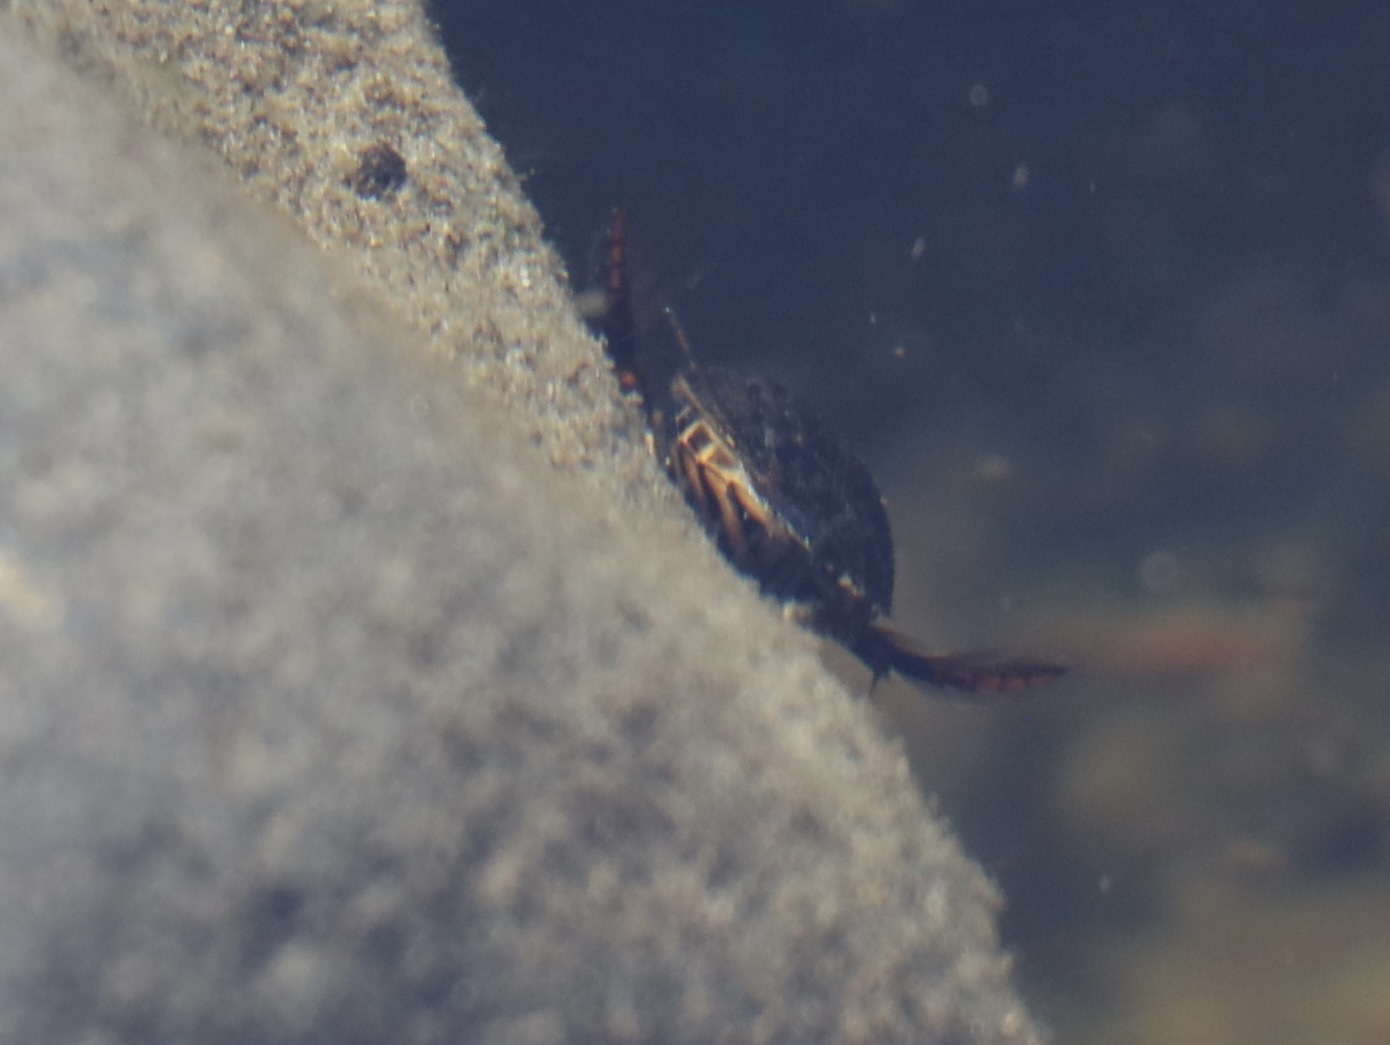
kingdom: Animalia
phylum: Arthropoda
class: Insecta
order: Coleoptera
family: Dytiscidae
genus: Acilius
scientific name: Acilius abbreviatus
